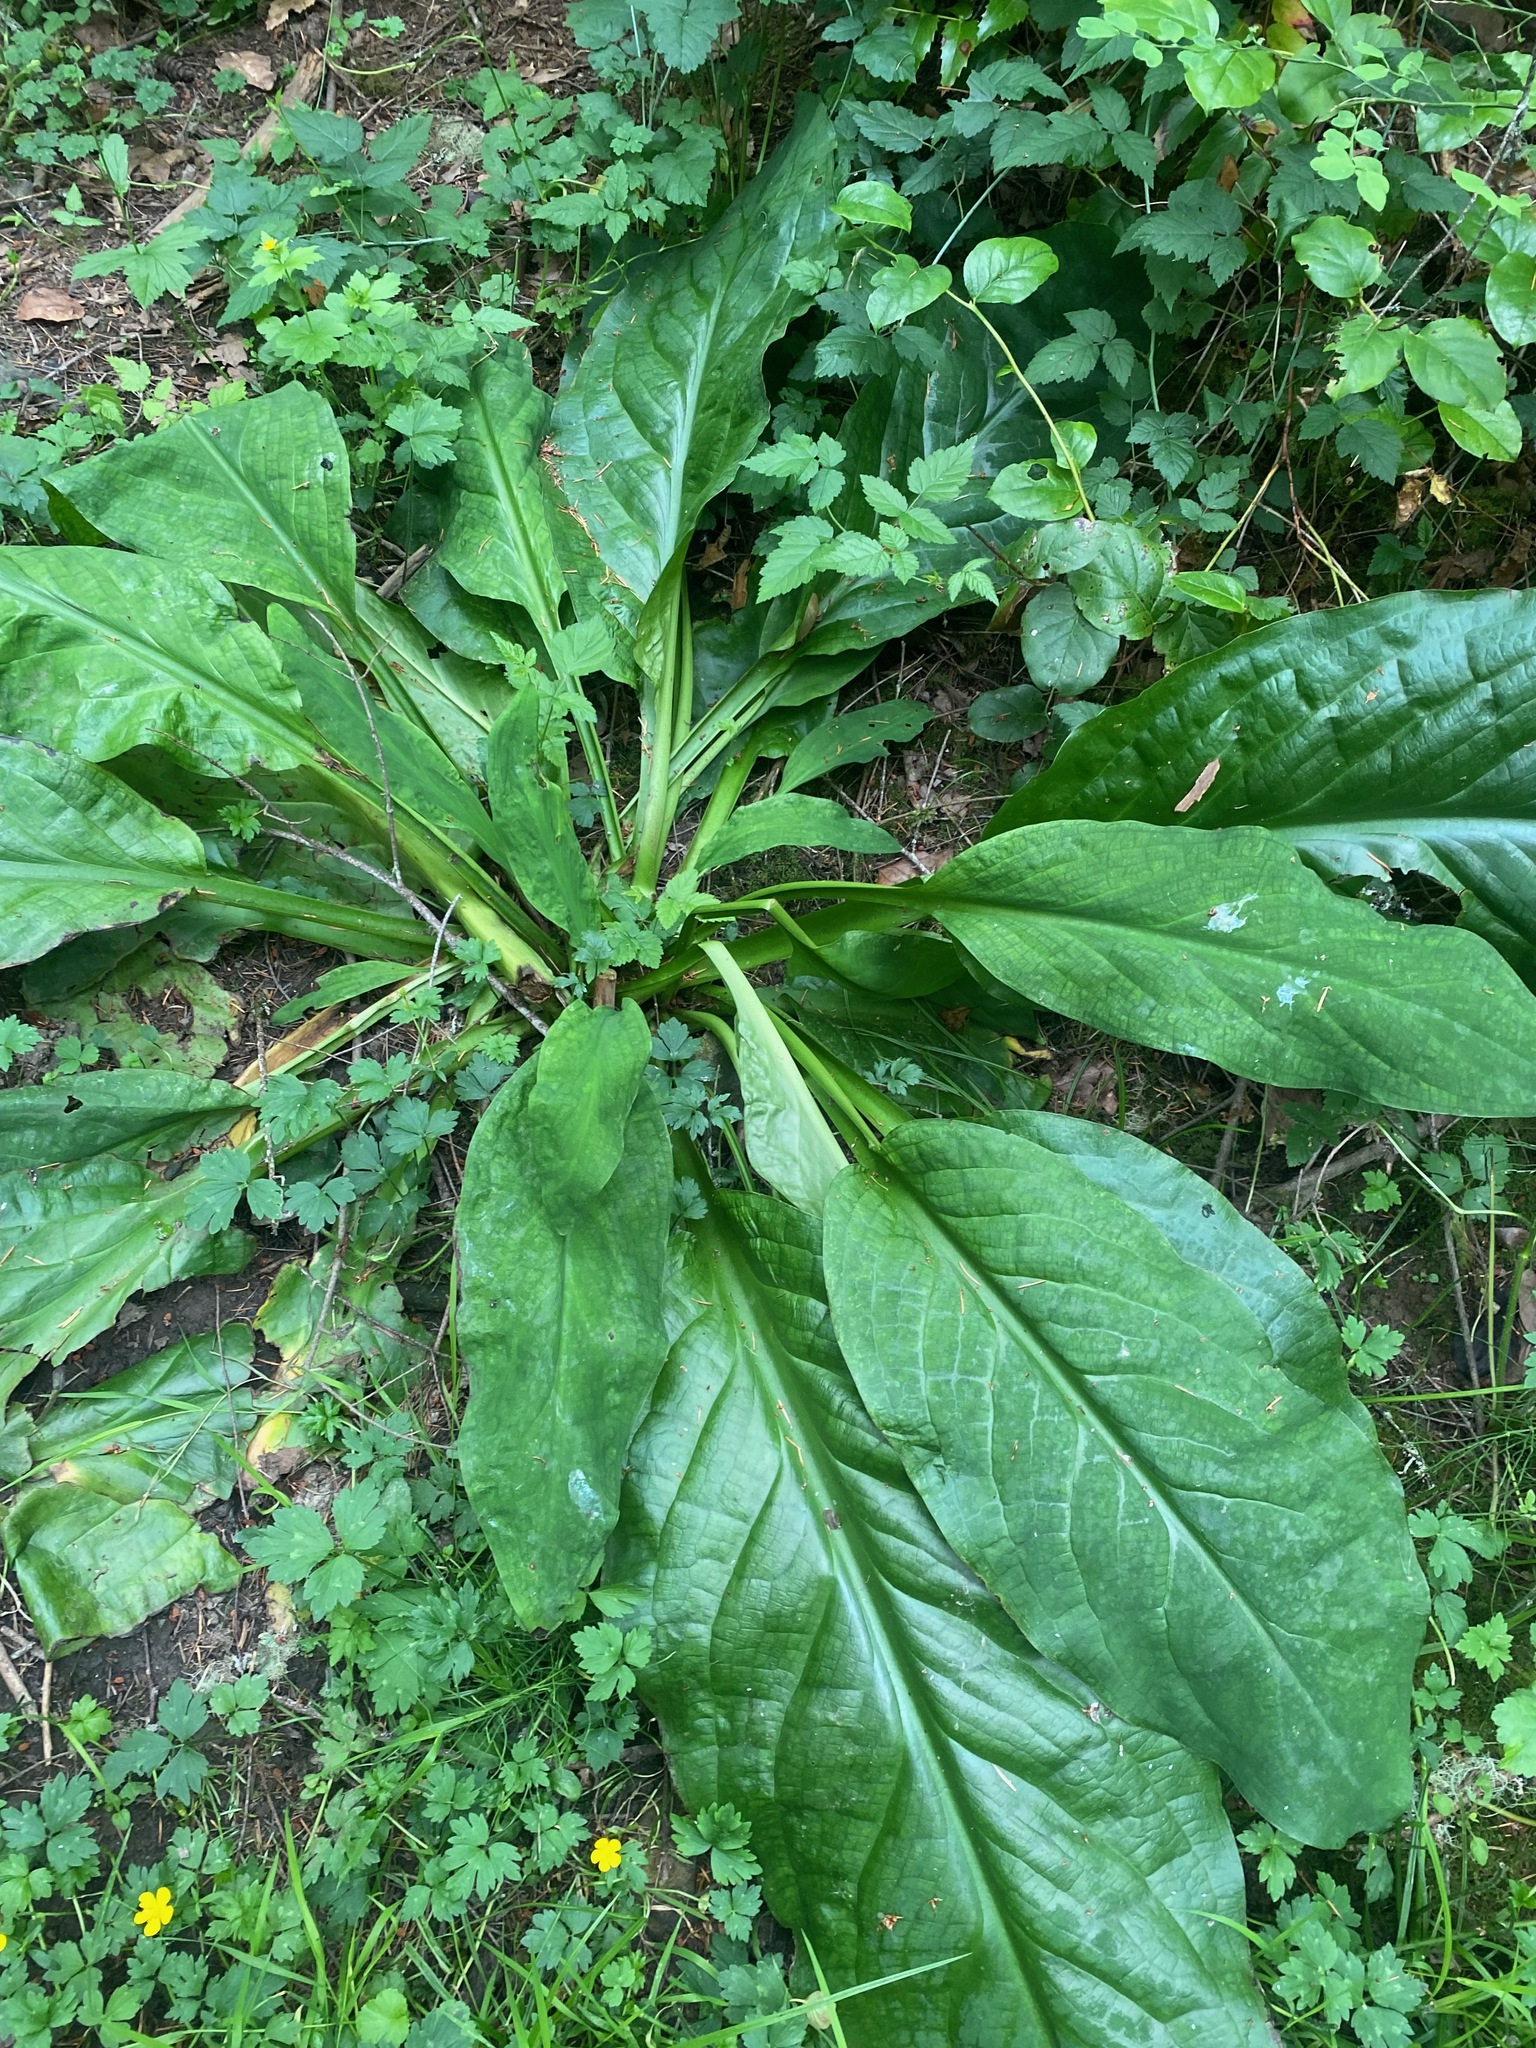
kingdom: Plantae
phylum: Tracheophyta
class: Liliopsida
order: Alismatales
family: Araceae
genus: Lysichiton
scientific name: Lysichiton americanus
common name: American skunk cabbage
